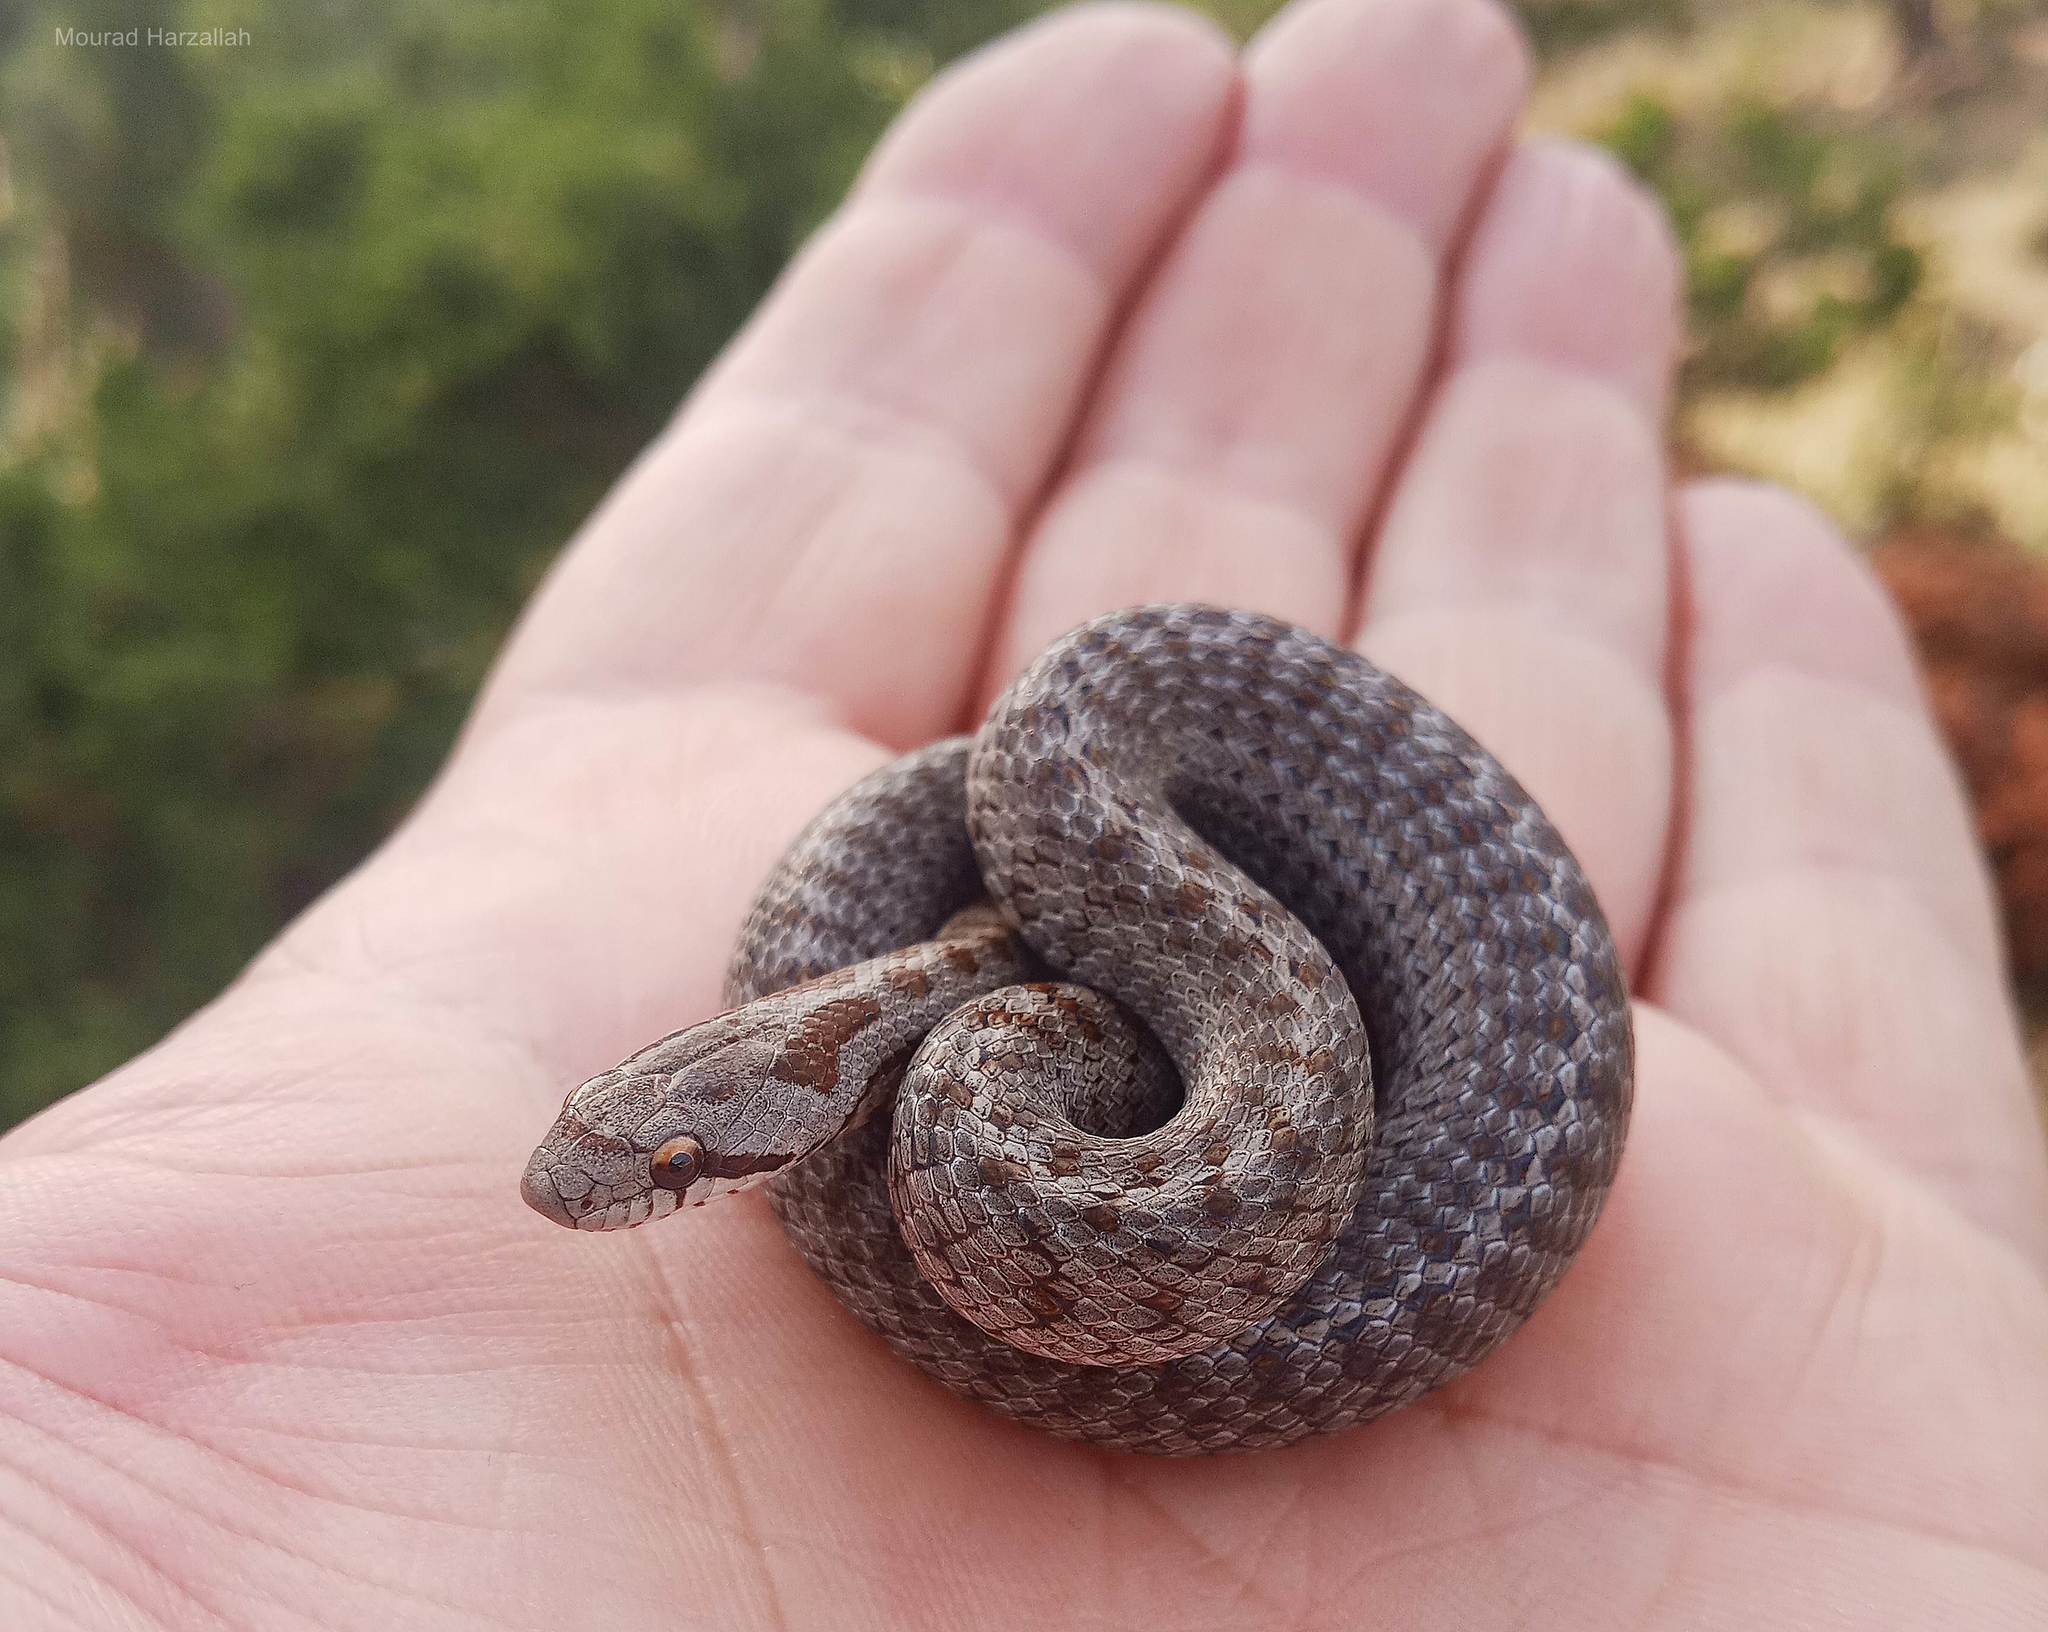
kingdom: Animalia
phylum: Chordata
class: Squamata
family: Colubridae
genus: Coronella
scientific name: Coronella girondica
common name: Southern smooth snake
